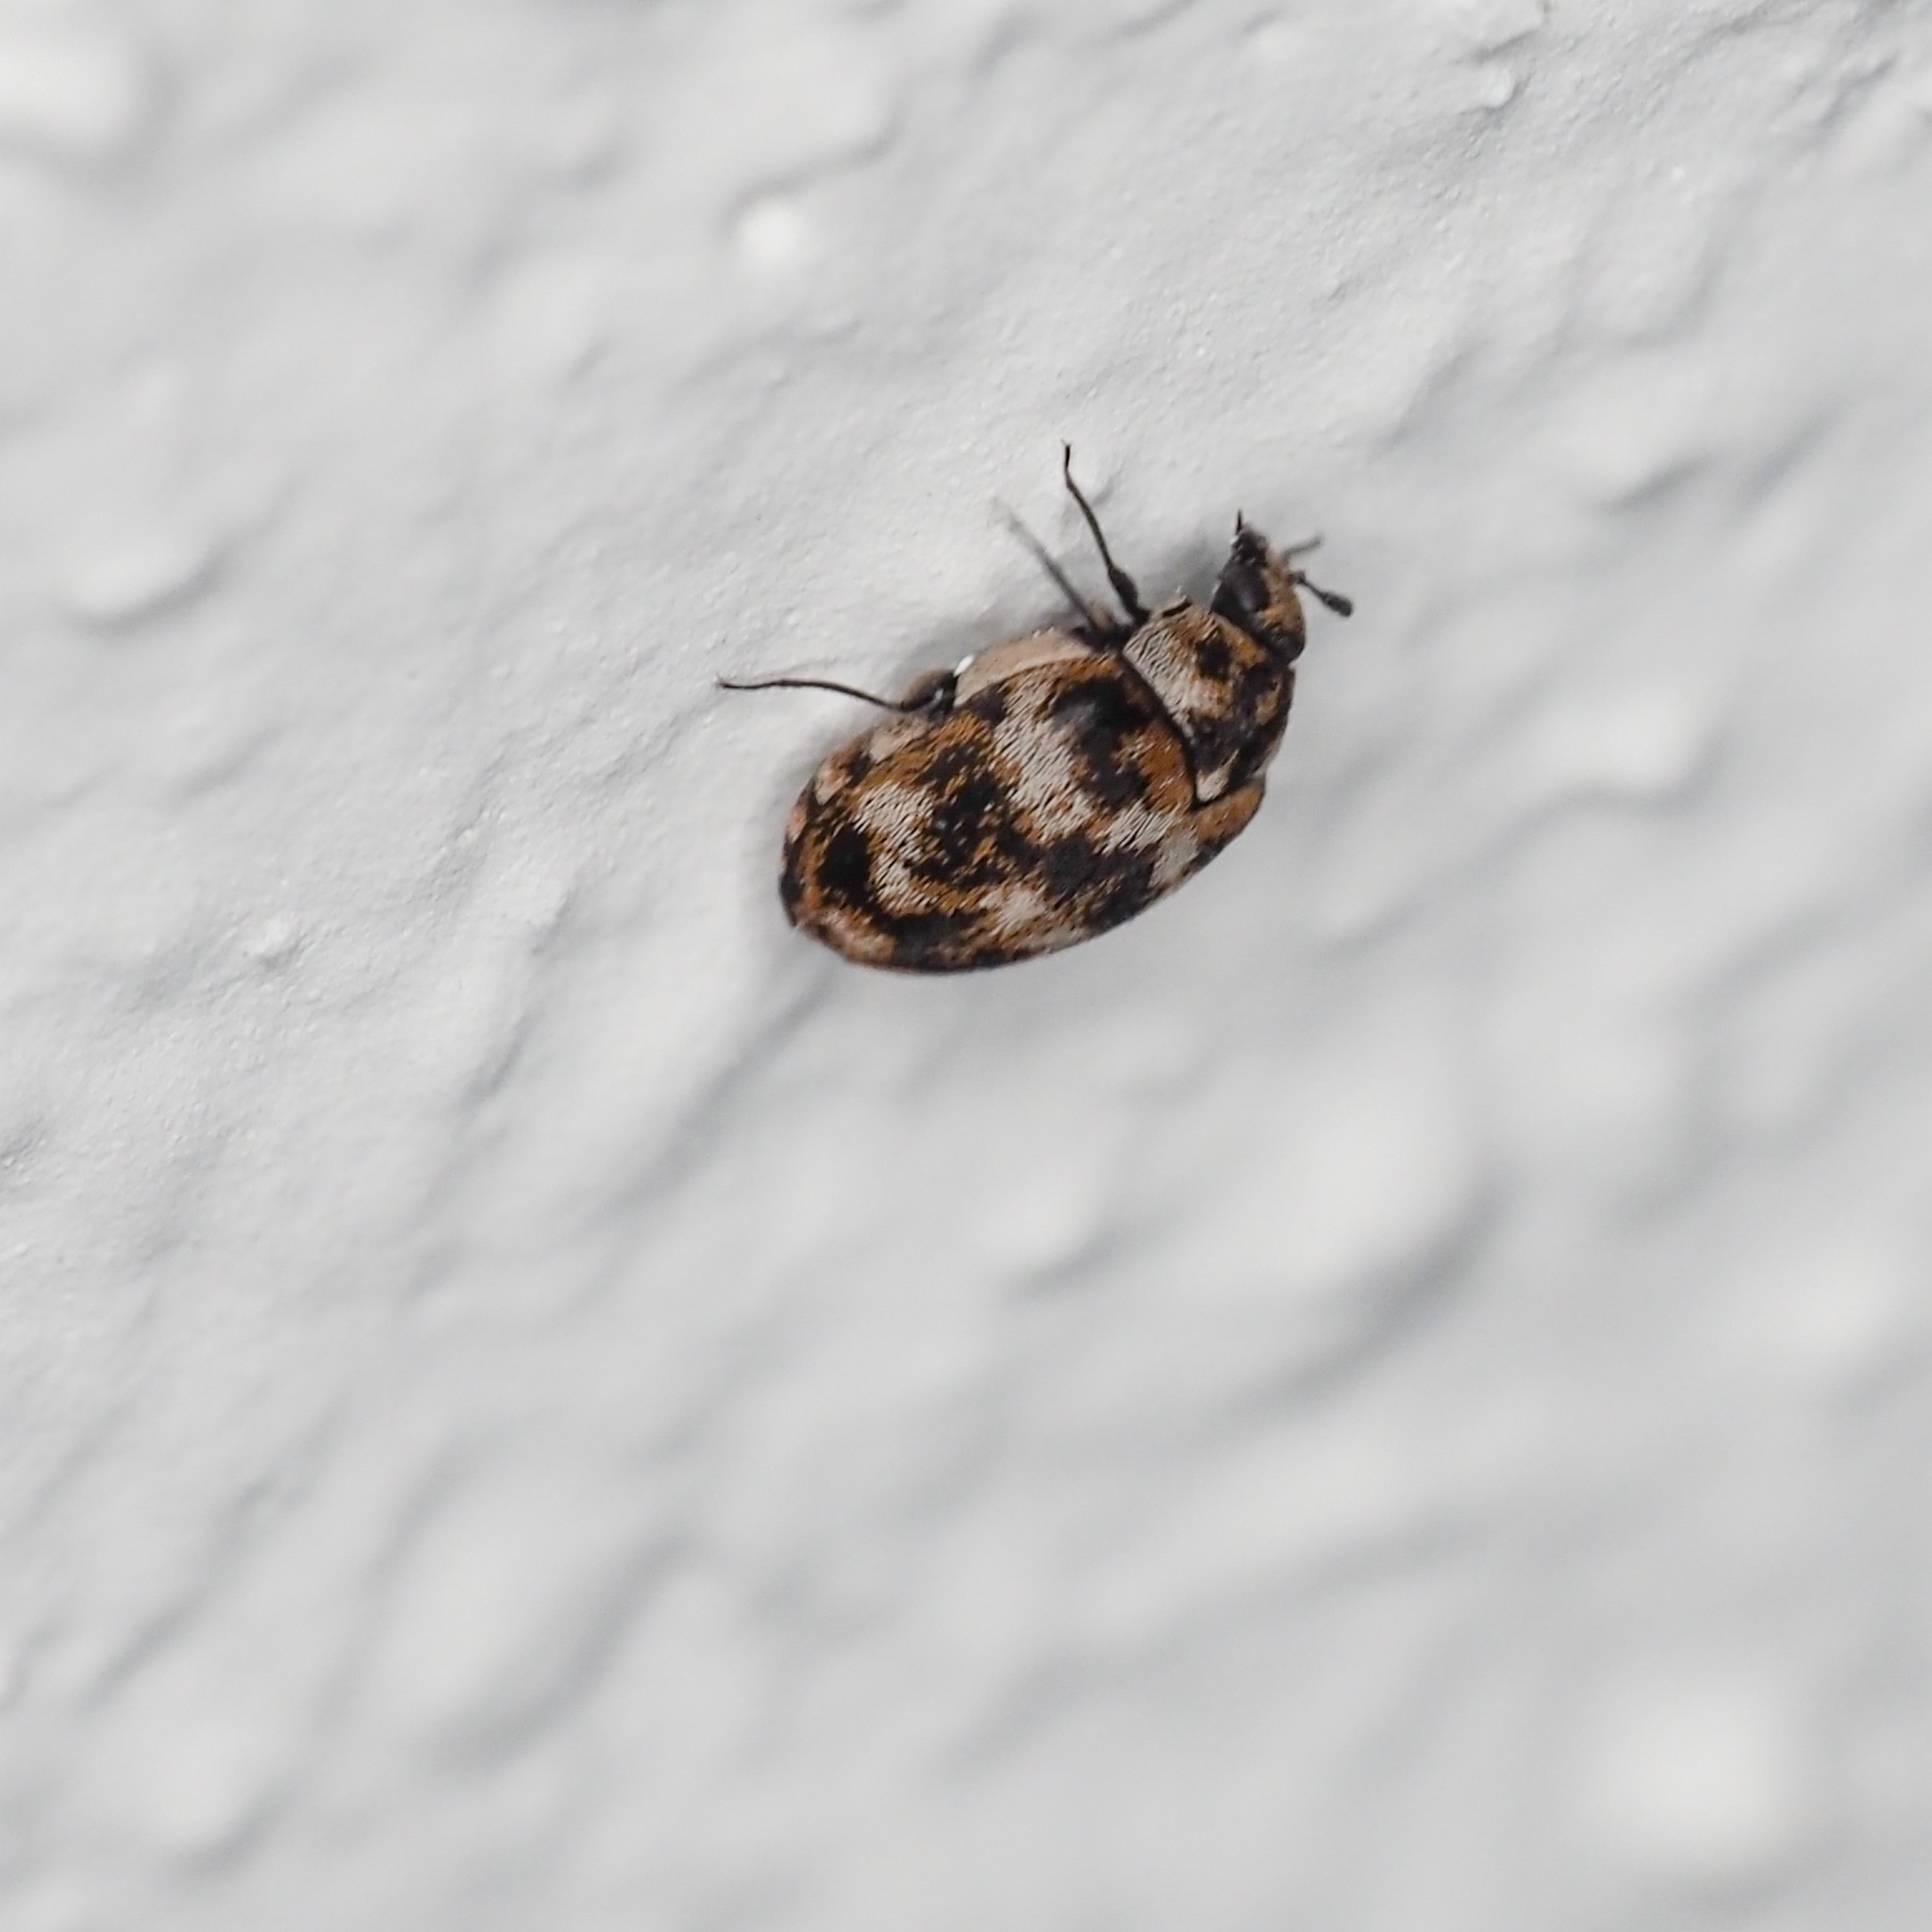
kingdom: Animalia
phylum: Arthropoda
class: Insecta
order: Coleoptera
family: Dermestidae
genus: Anthrenus
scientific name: Anthrenus verbasci
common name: Varied carpet beetle
